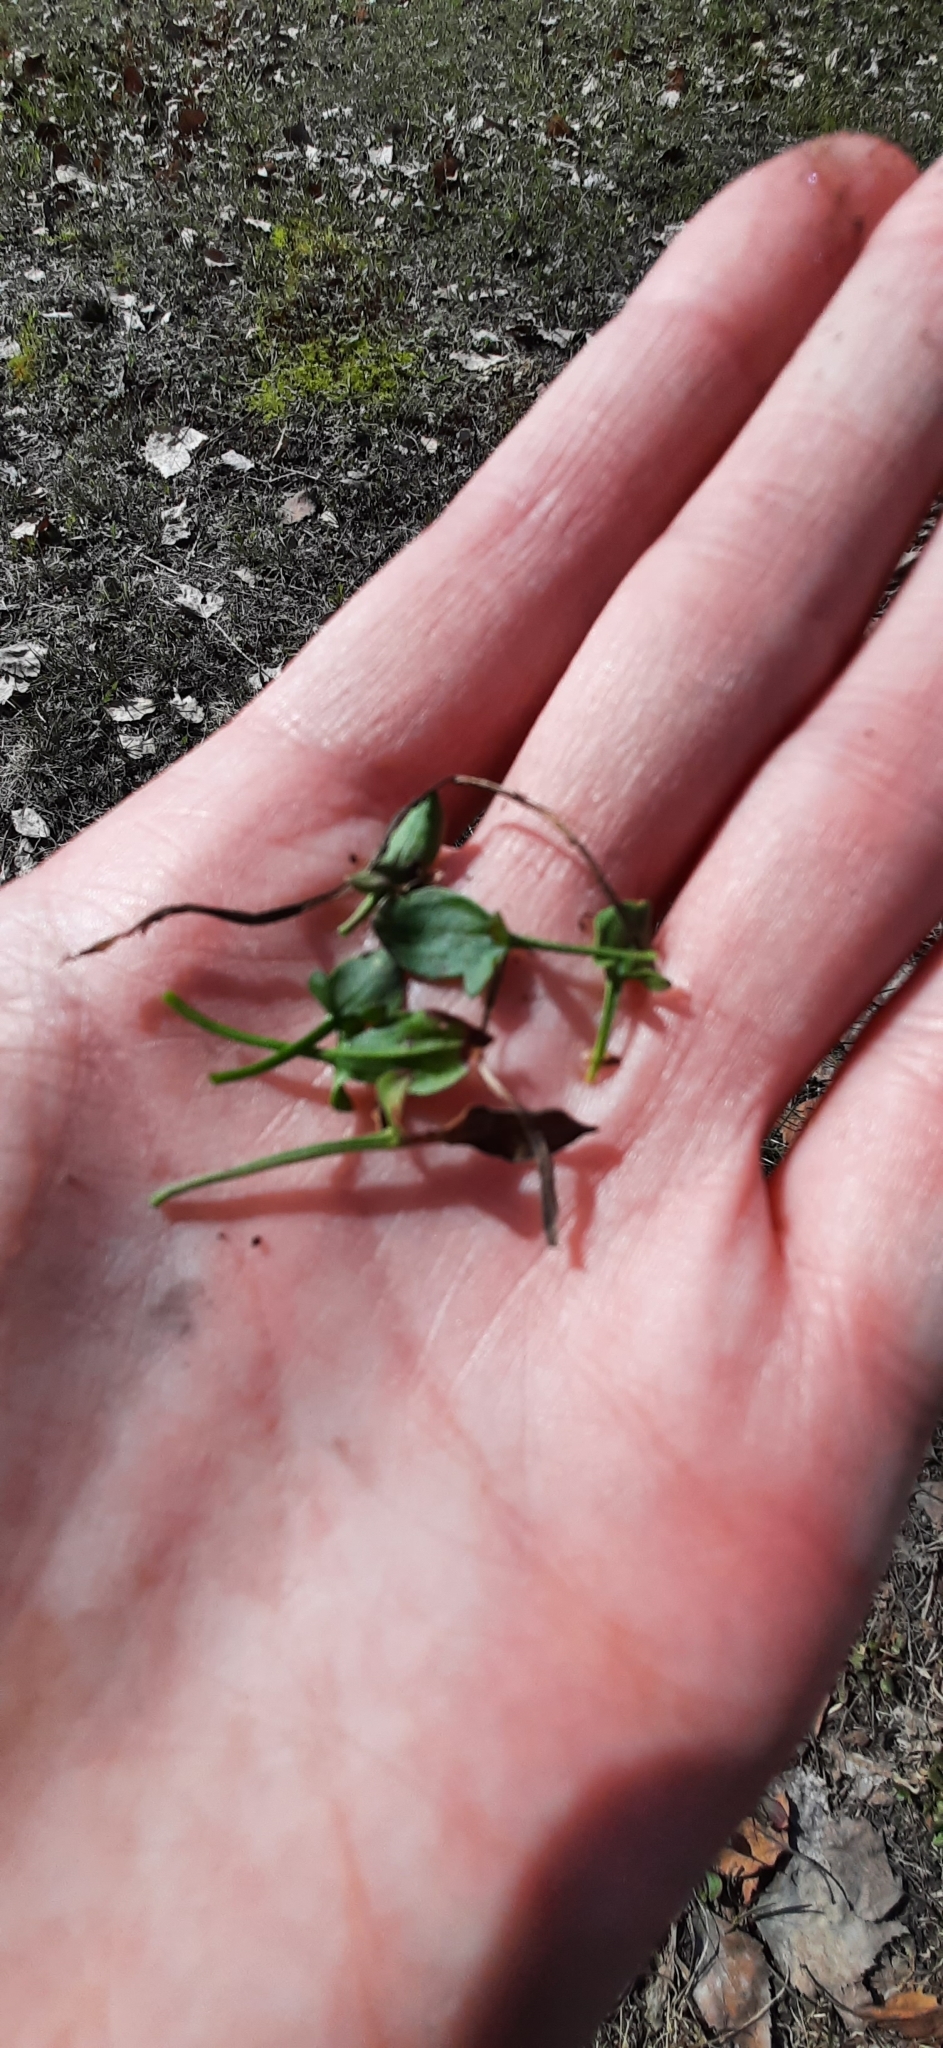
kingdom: Plantae
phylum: Tracheophyta
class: Magnoliopsida
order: Caryophyllales
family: Polygonaceae
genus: Rumex
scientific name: Rumex acetosella
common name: Common sheep sorrel
